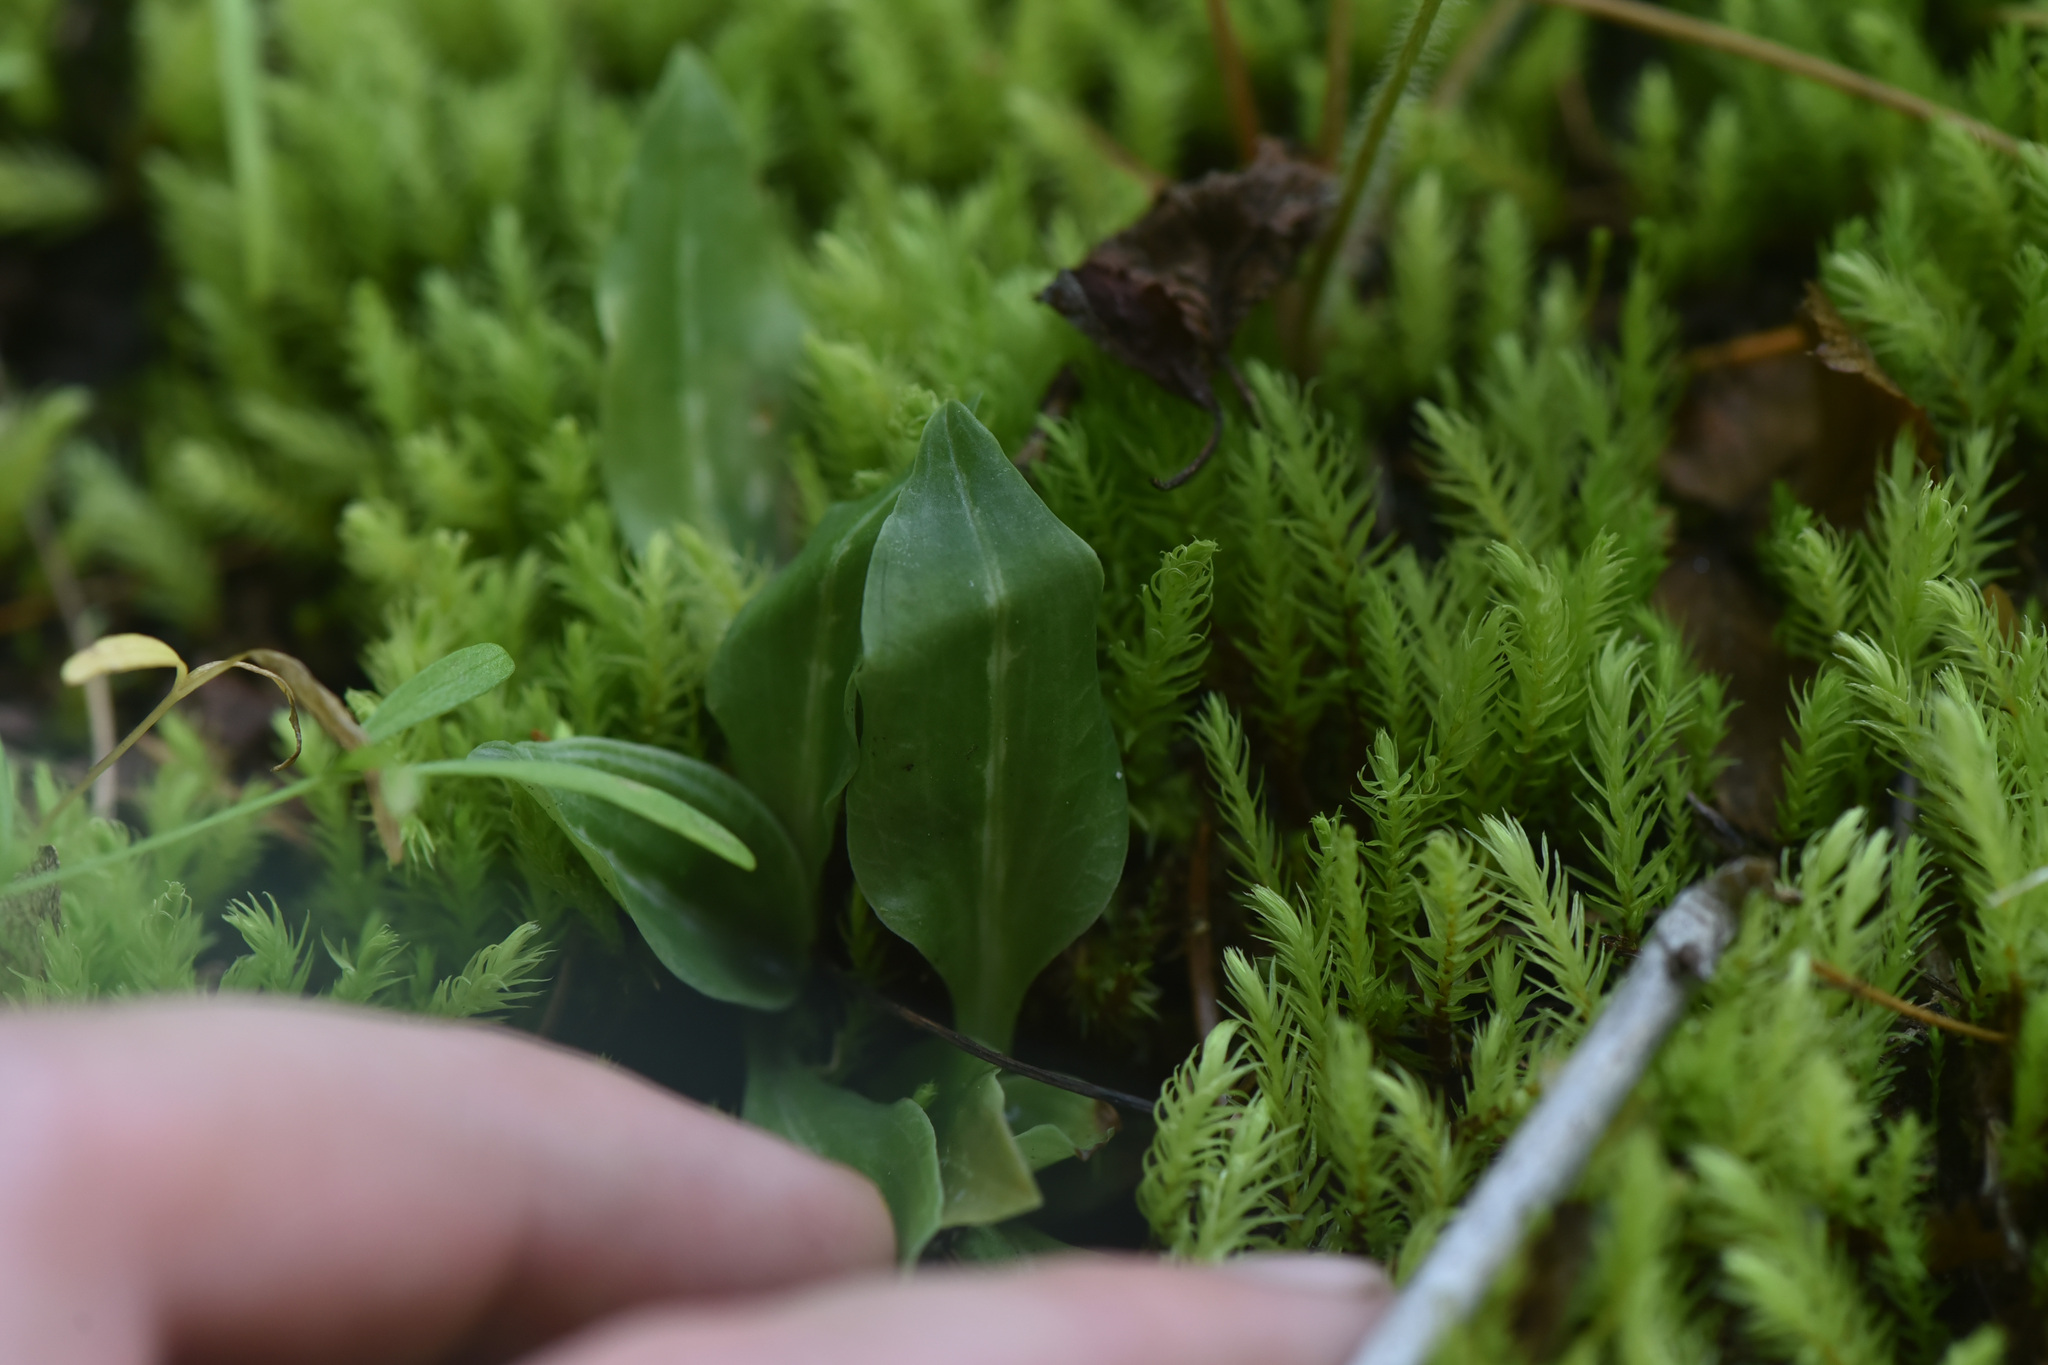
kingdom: Plantae
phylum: Tracheophyta
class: Liliopsida
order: Asparagales
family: Orchidaceae
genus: Goodyera
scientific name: Goodyera oblongifolia
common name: Giant rattlesnake-plantain
